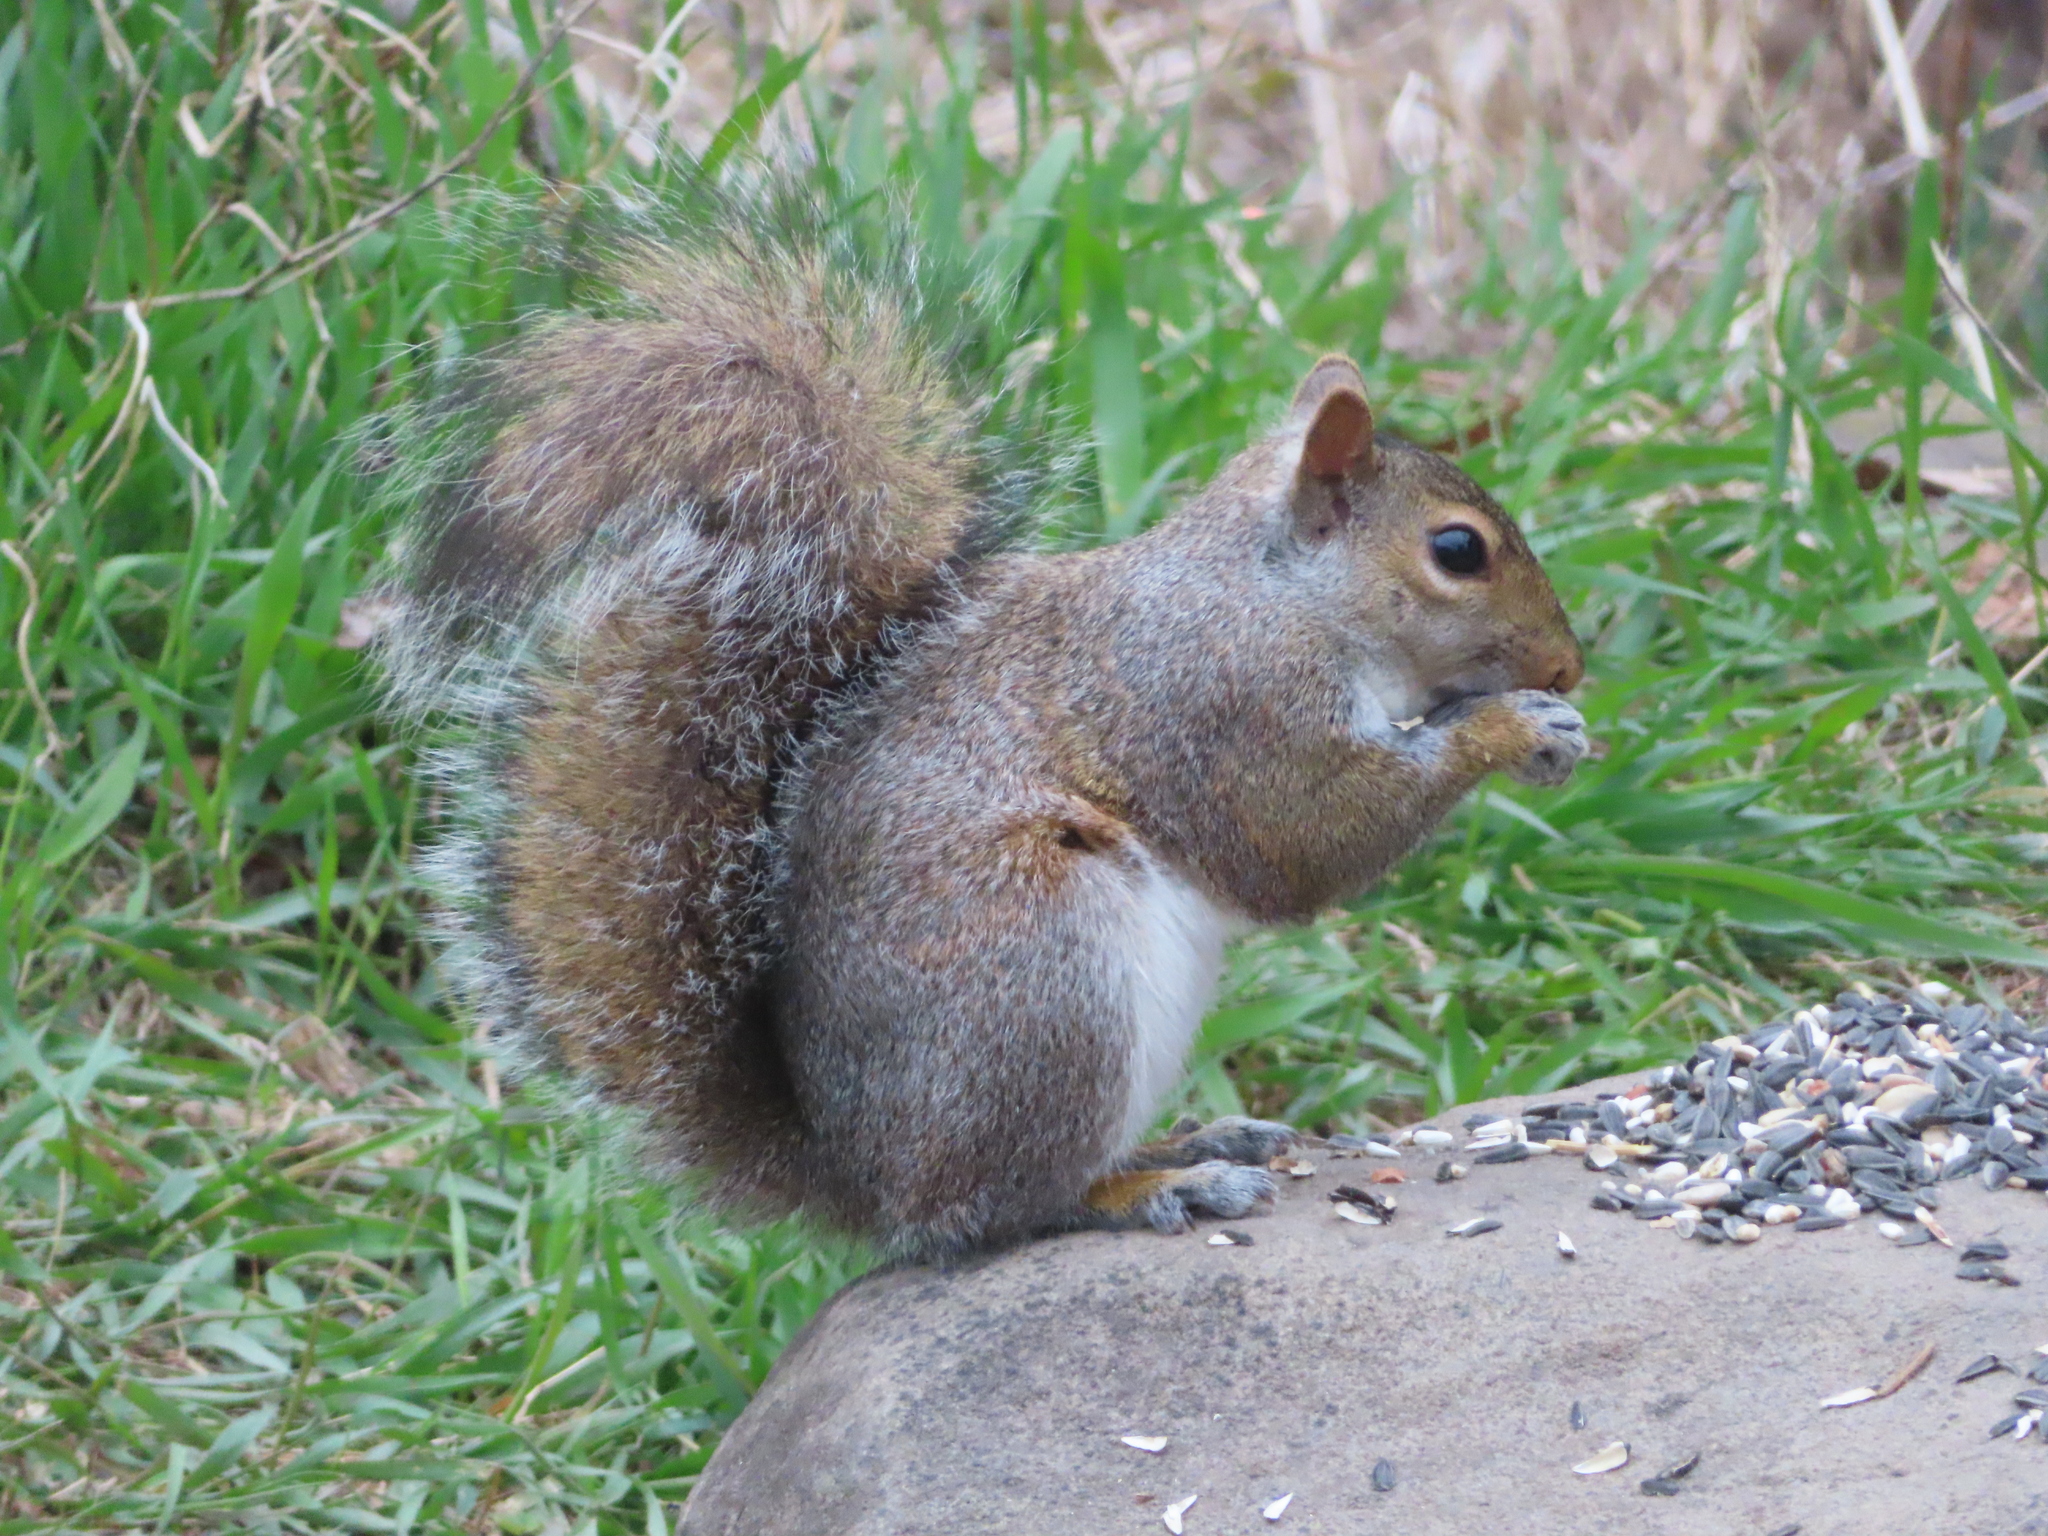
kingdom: Animalia
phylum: Chordata
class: Mammalia
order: Rodentia
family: Sciuridae
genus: Sciurus
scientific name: Sciurus carolinensis
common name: Eastern gray squirrel
